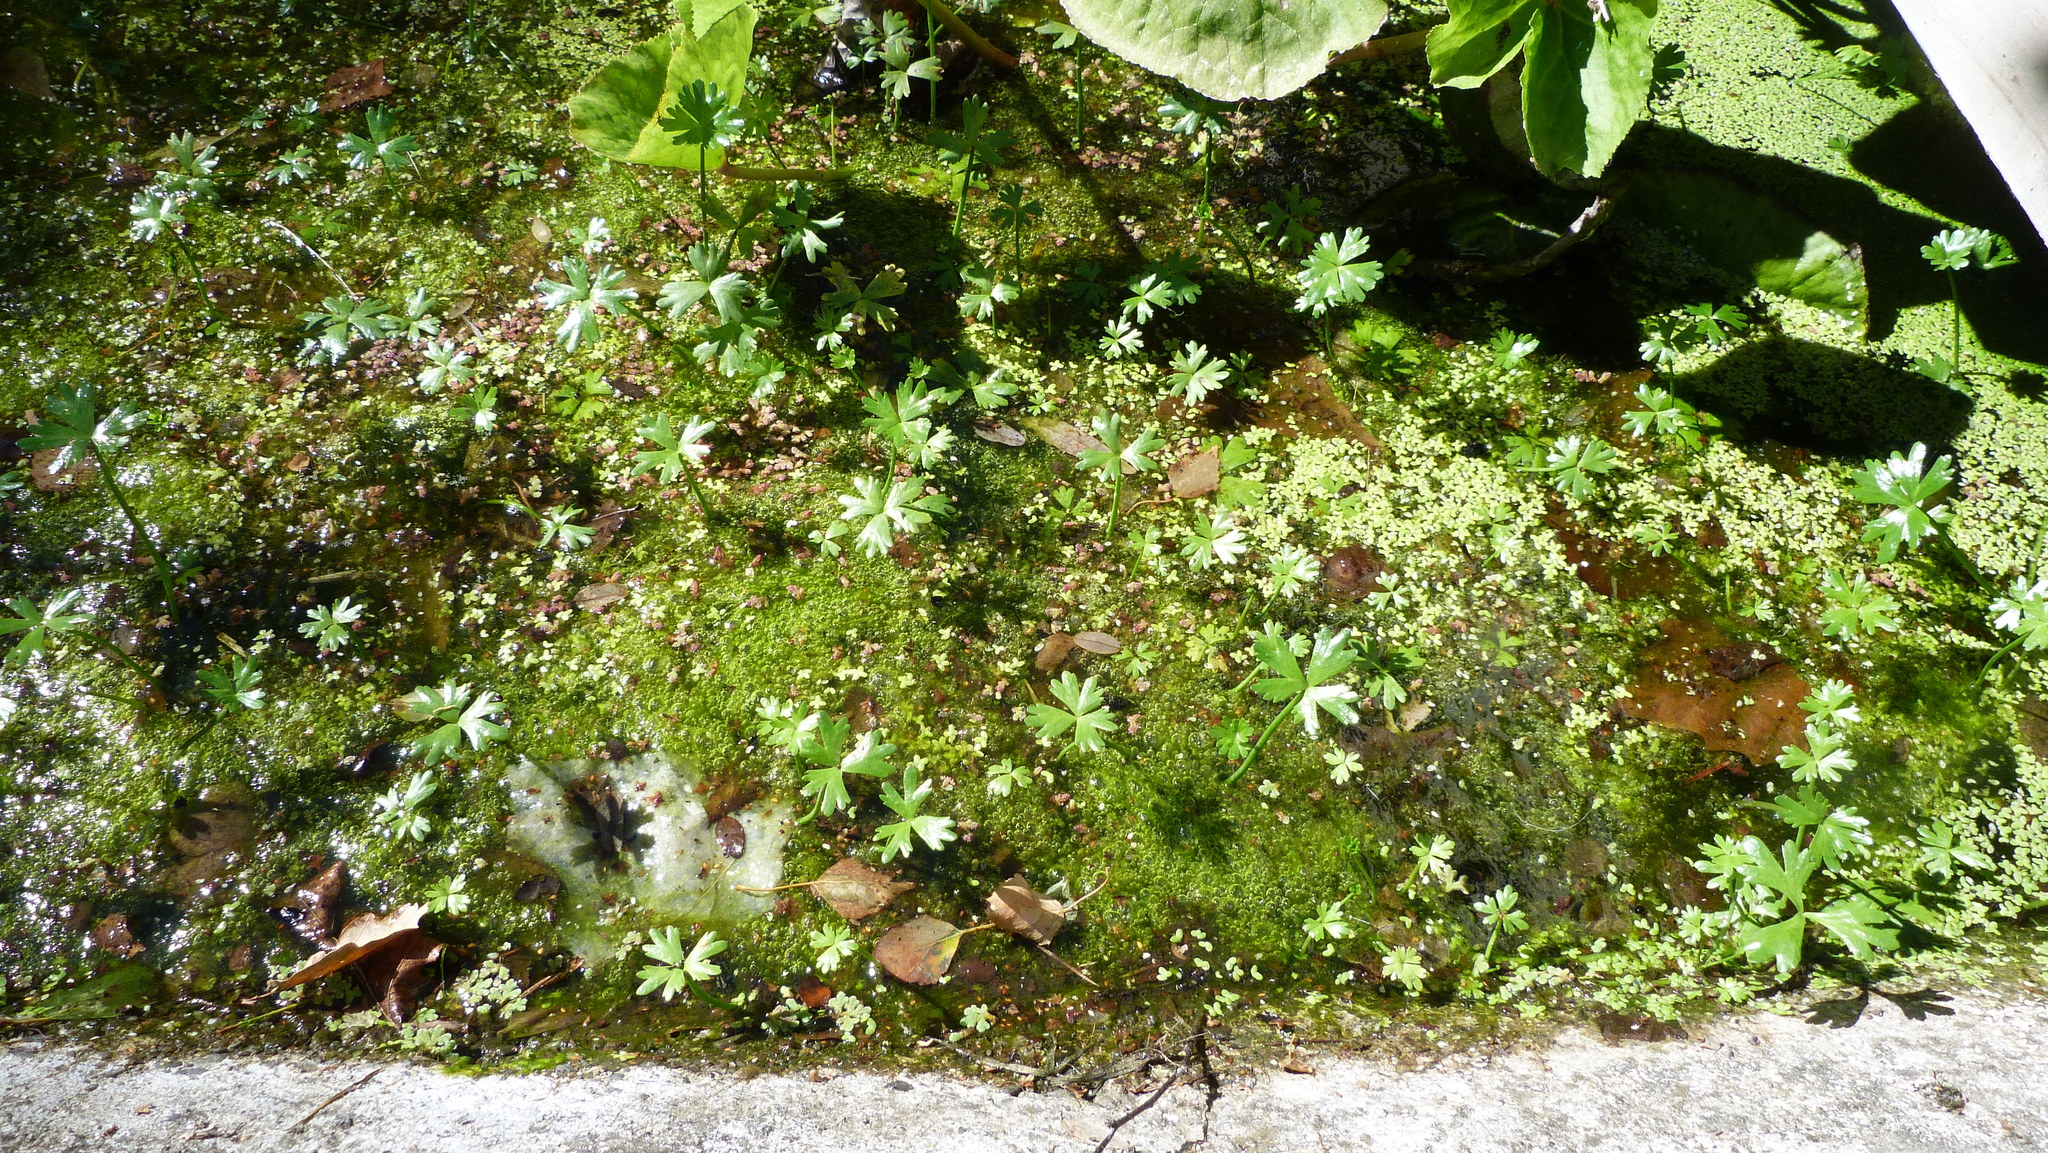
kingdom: Plantae
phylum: Tracheophyta
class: Magnoliopsida
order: Ranunculales
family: Ranunculaceae
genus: Ranunculus
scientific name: Ranunculus glabrifolius
